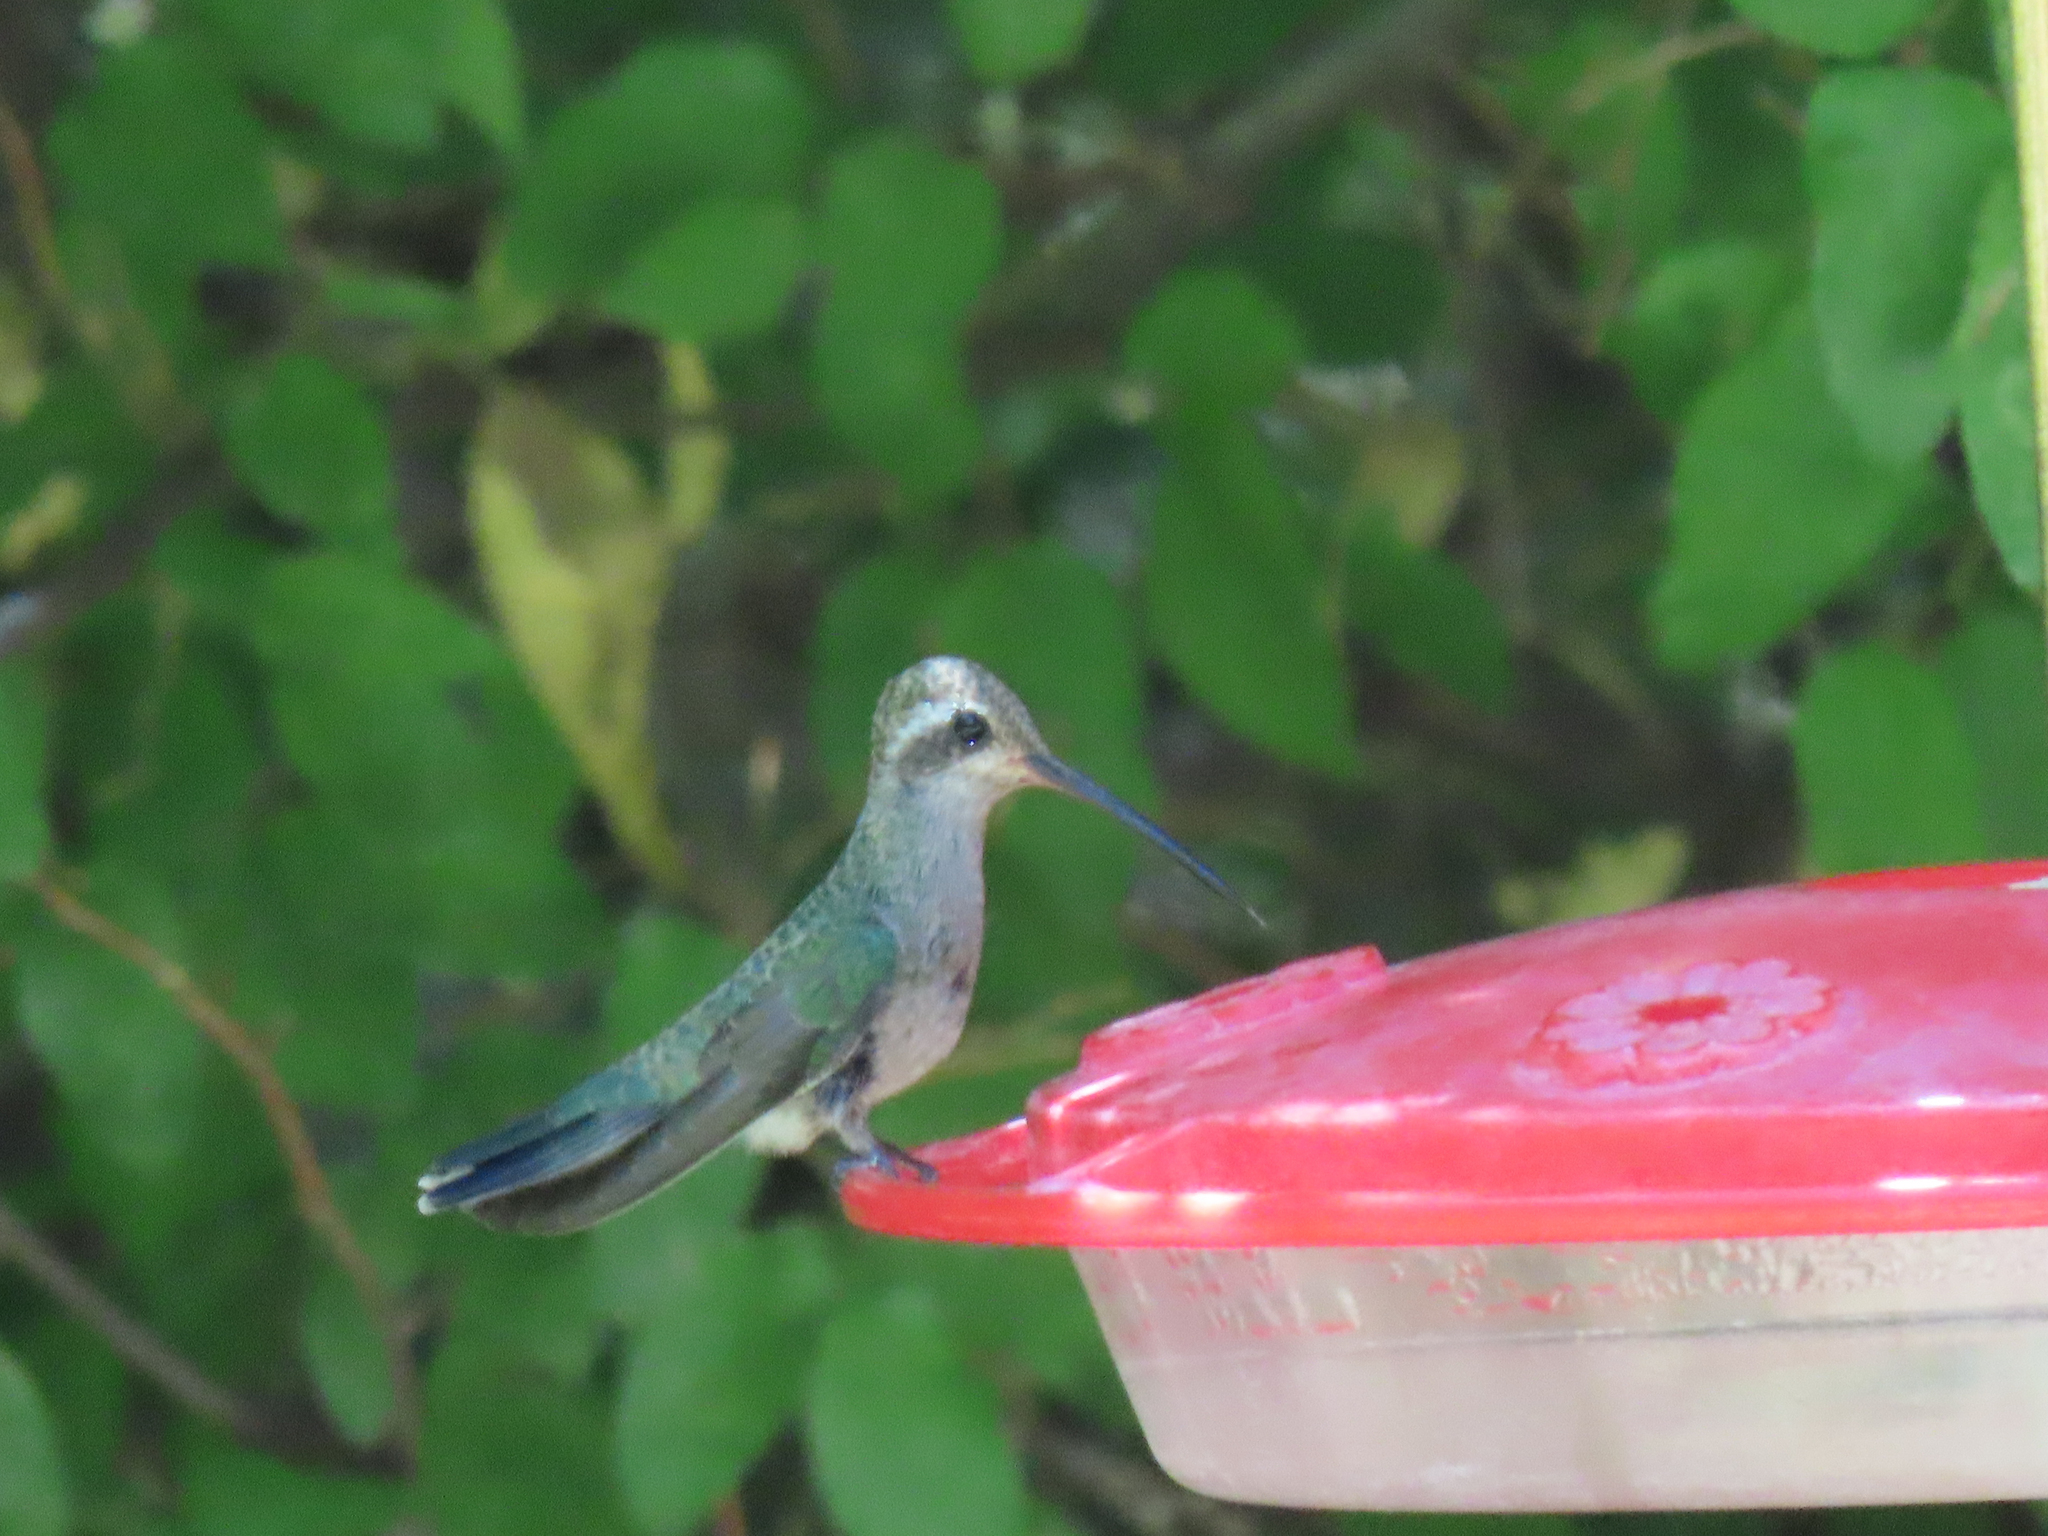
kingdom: Animalia
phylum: Chordata
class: Aves
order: Apodiformes
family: Trochilidae
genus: Cynanthus
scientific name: Cynanthus latirostris
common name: Broad-billed hummingbird
